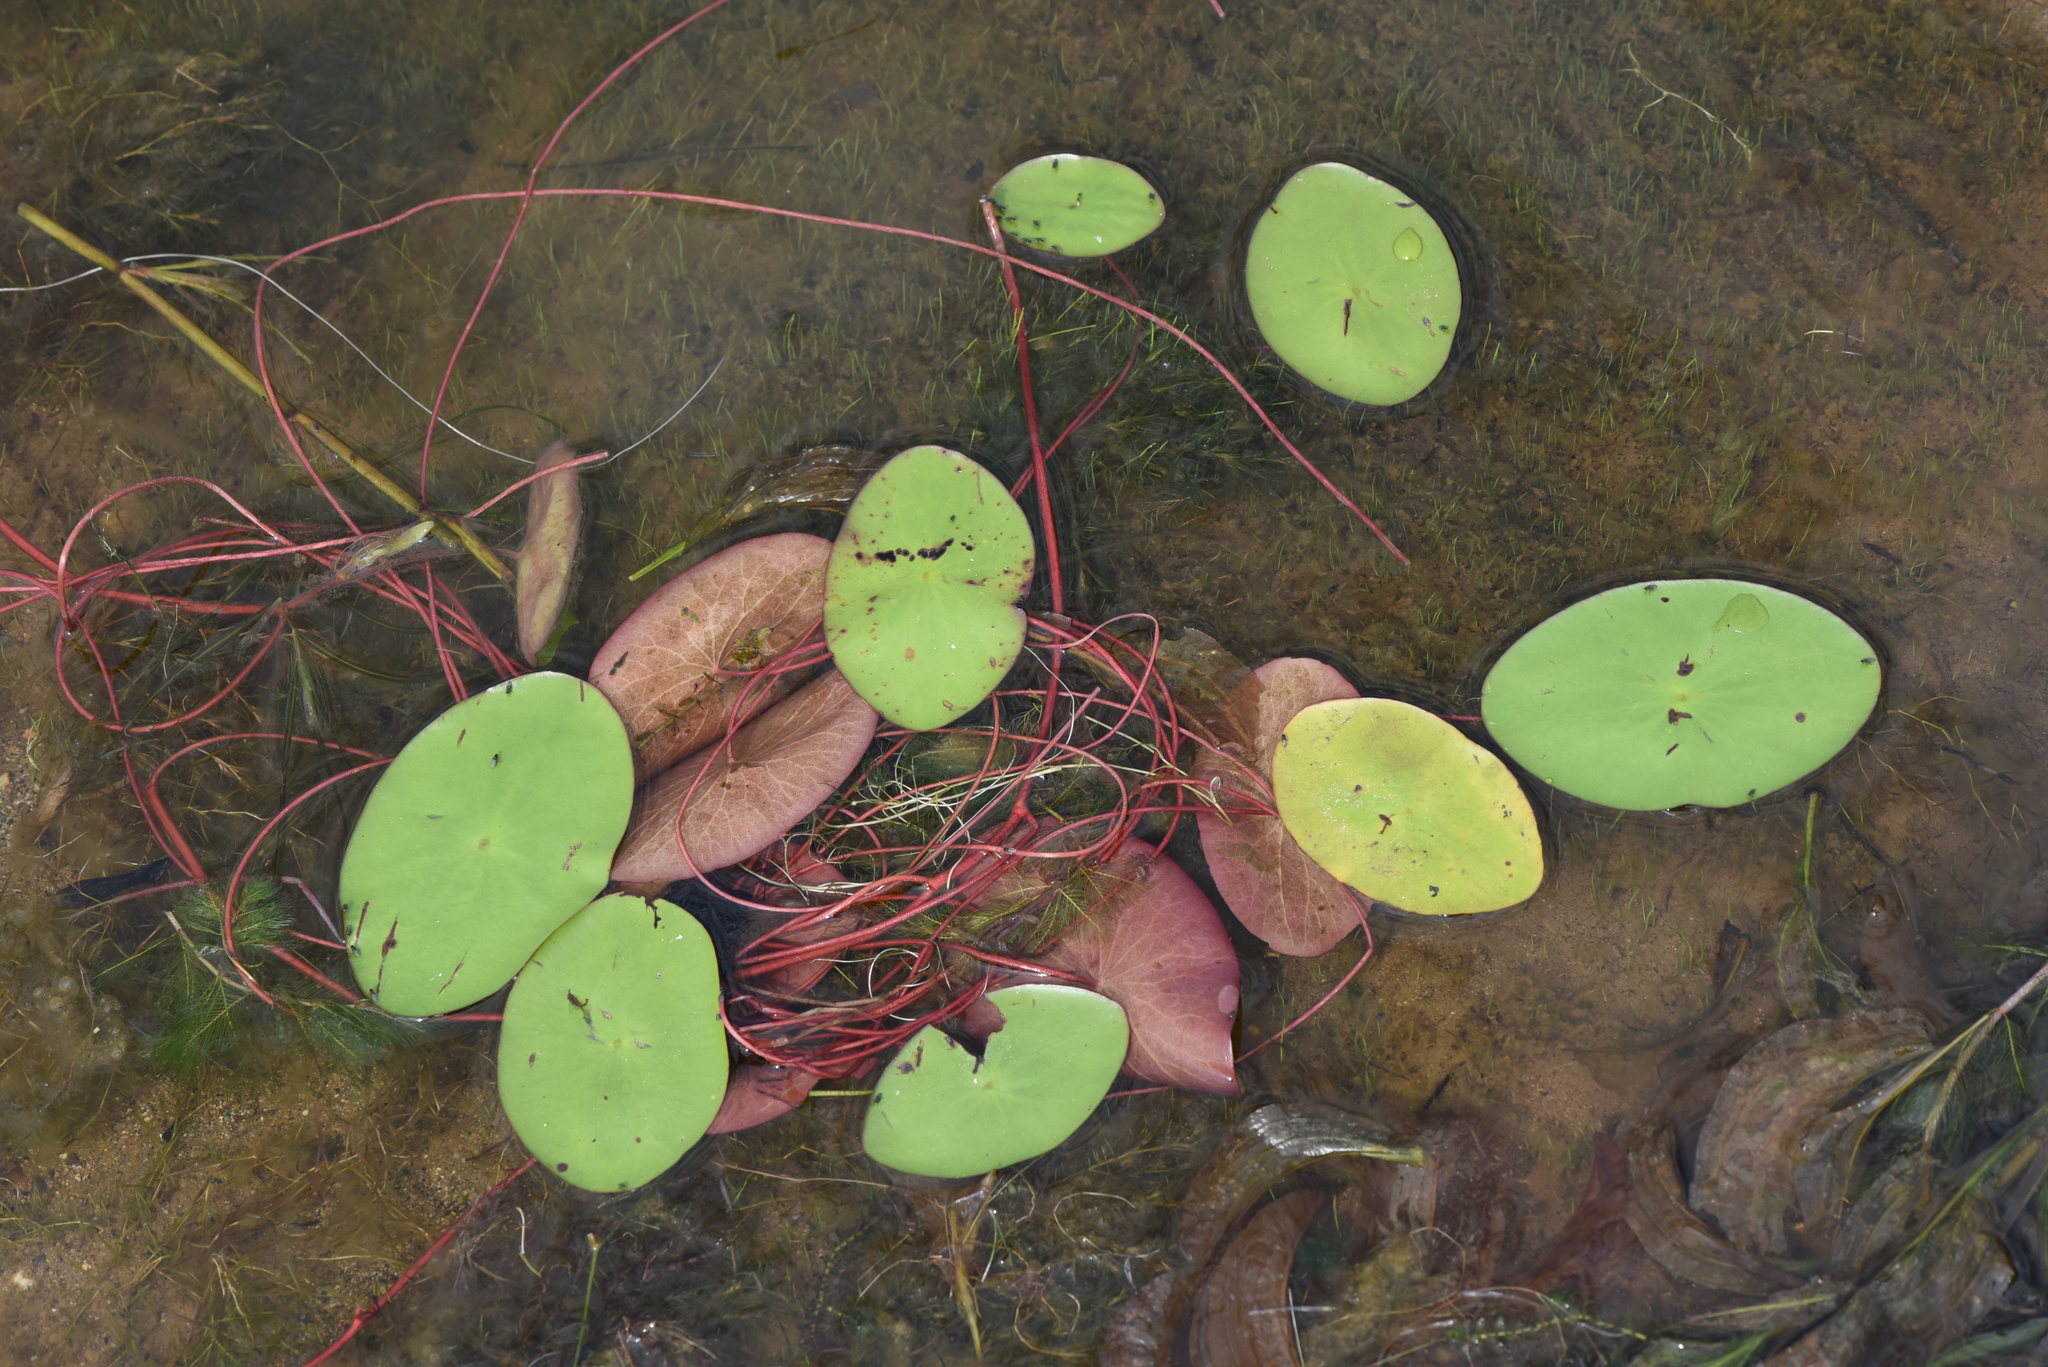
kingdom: Plantae
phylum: Tracheophyta
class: Magnoliopsida
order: Nymphaeales
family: Cabombaceae
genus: Brasenia
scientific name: Brasenia schreberi
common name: Water-shield
